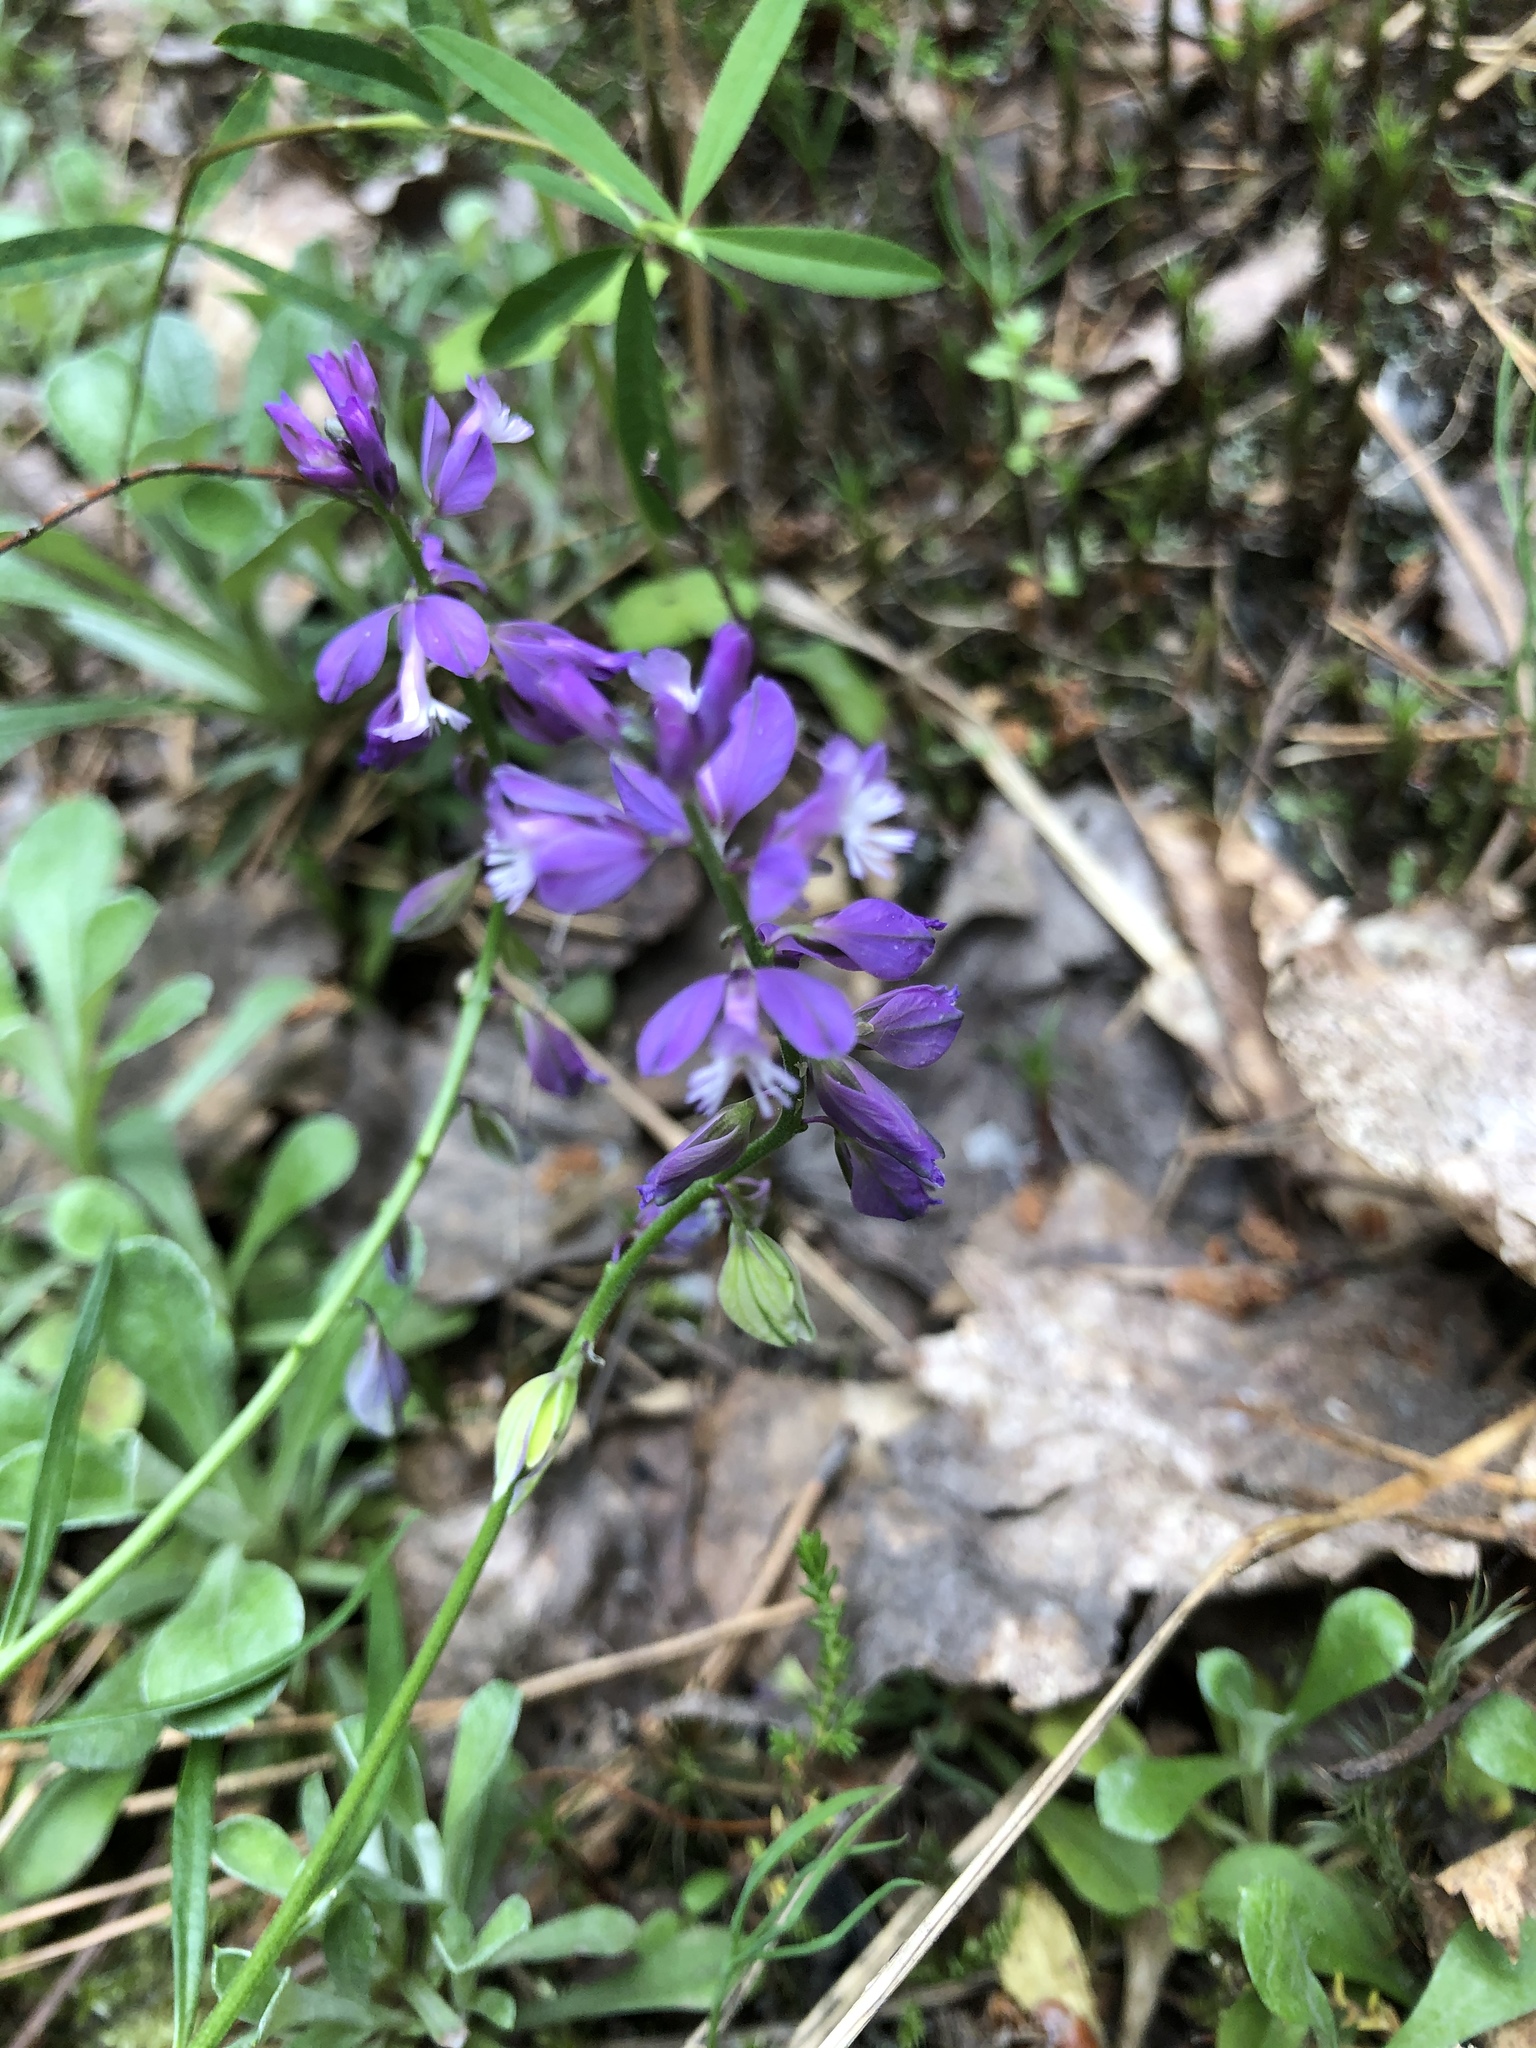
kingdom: Plantae
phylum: Tracheophyta
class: Magnoliopsida
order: Fabales
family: Polygalaceae
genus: Polygala
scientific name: Polygala comosa
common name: Tufted milkwort
